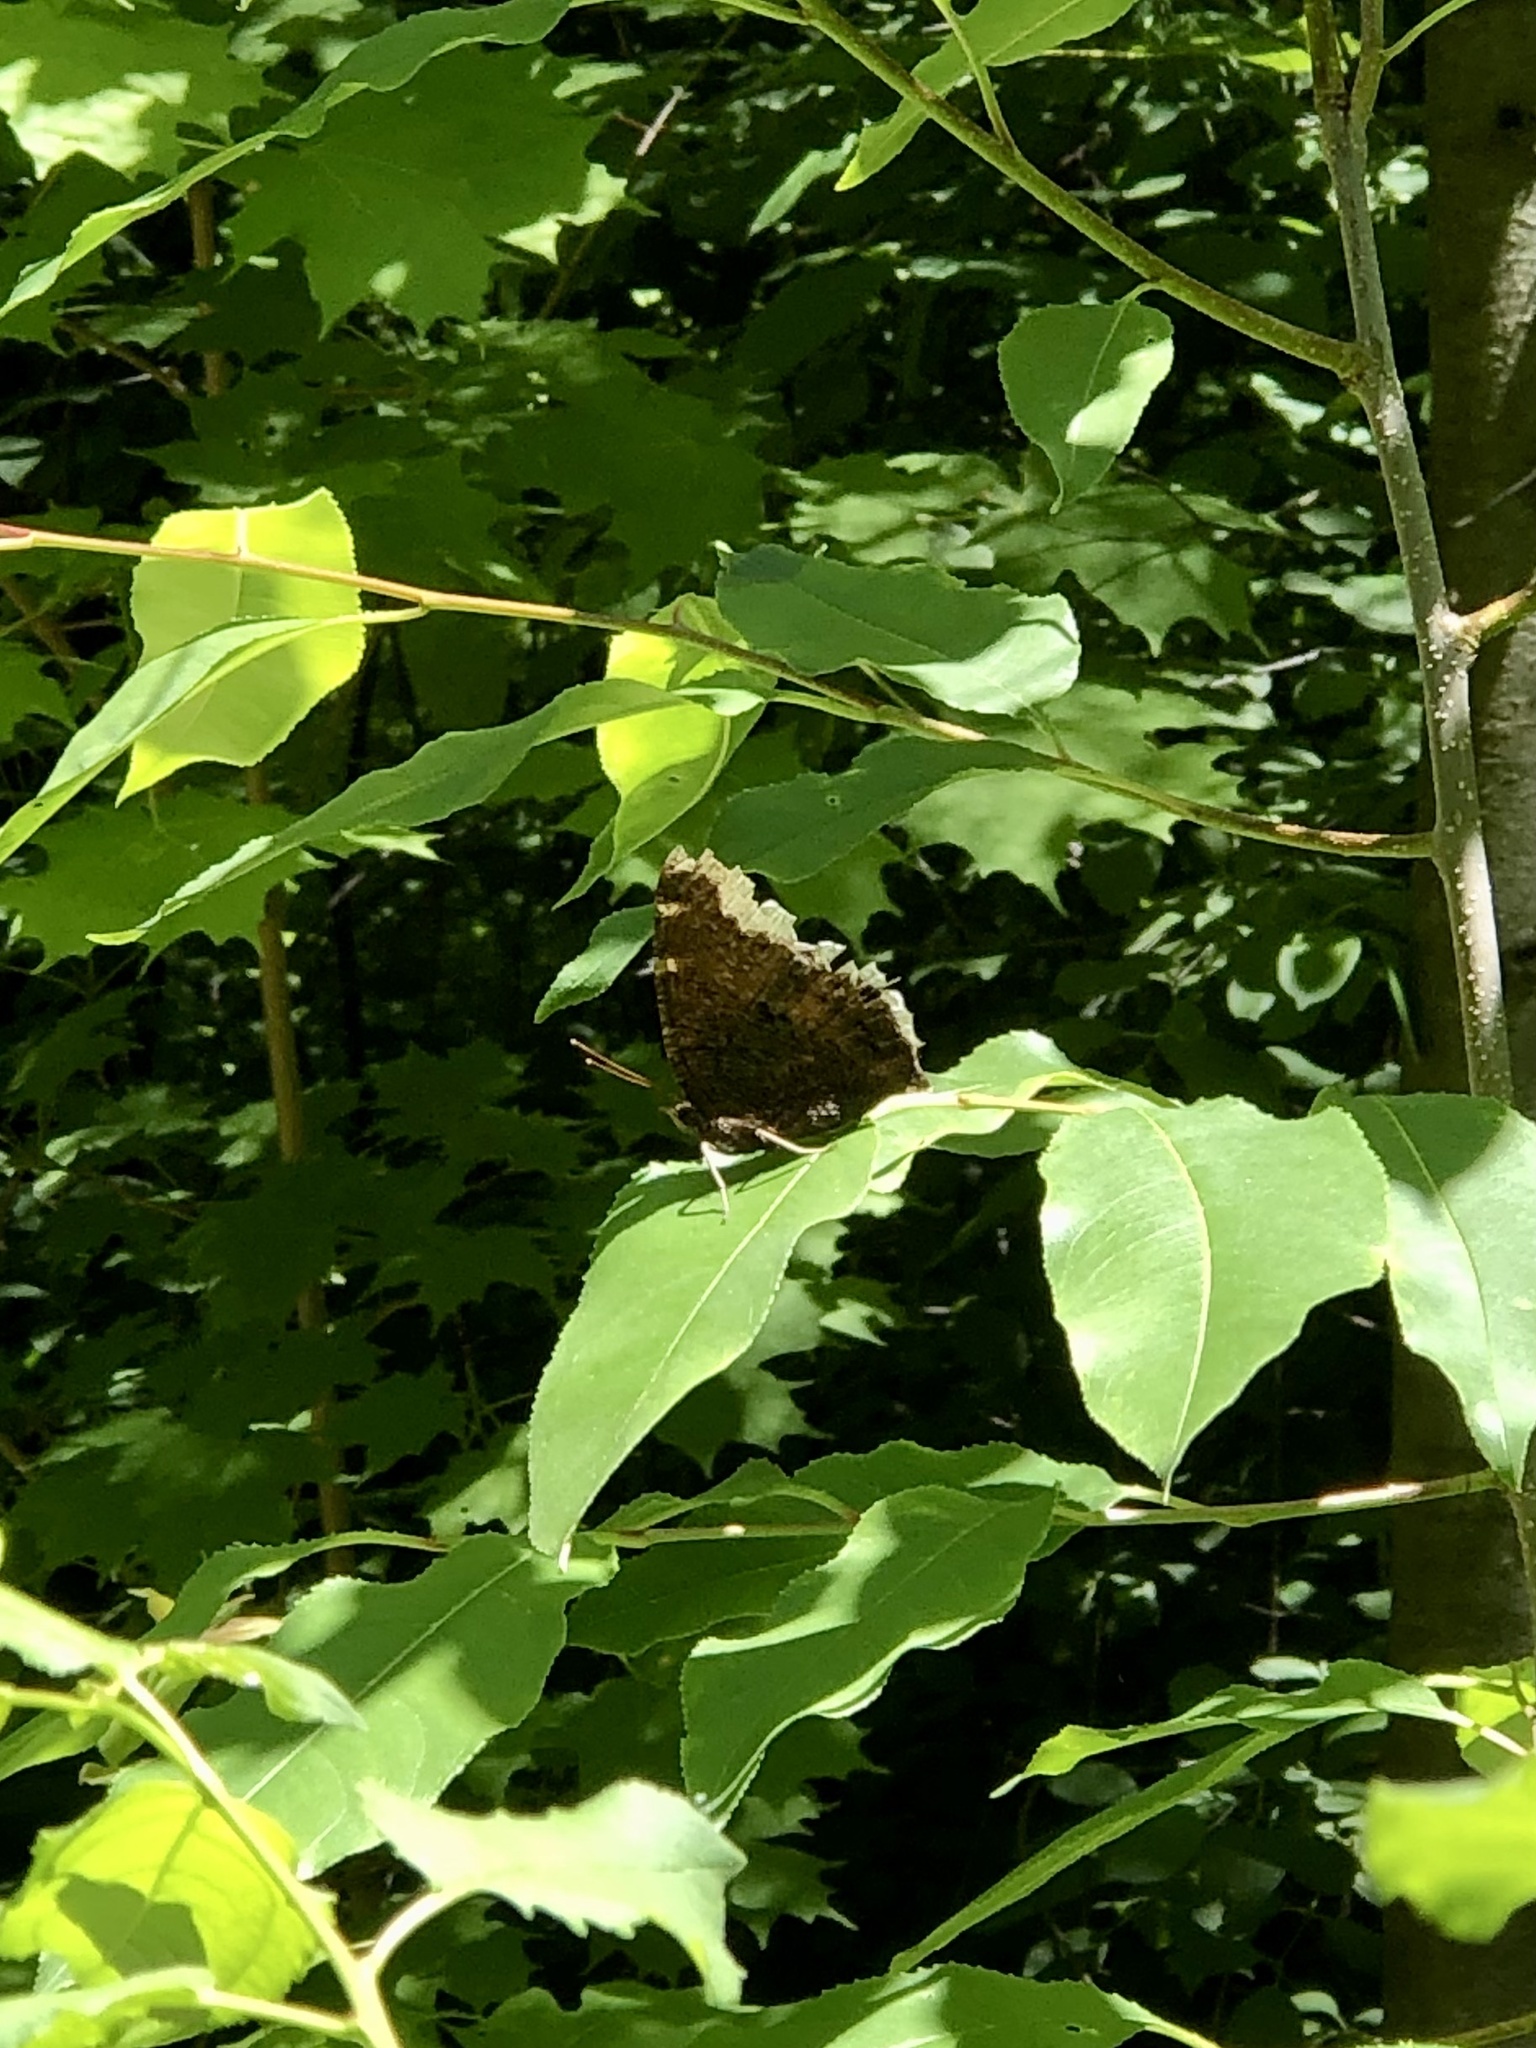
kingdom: Animalia
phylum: Arthropoda
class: Insecta
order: Lepidoptera
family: Nymphalidae
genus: Nymphalis
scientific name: Nymphalis antiopa
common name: Camberwell beauty
